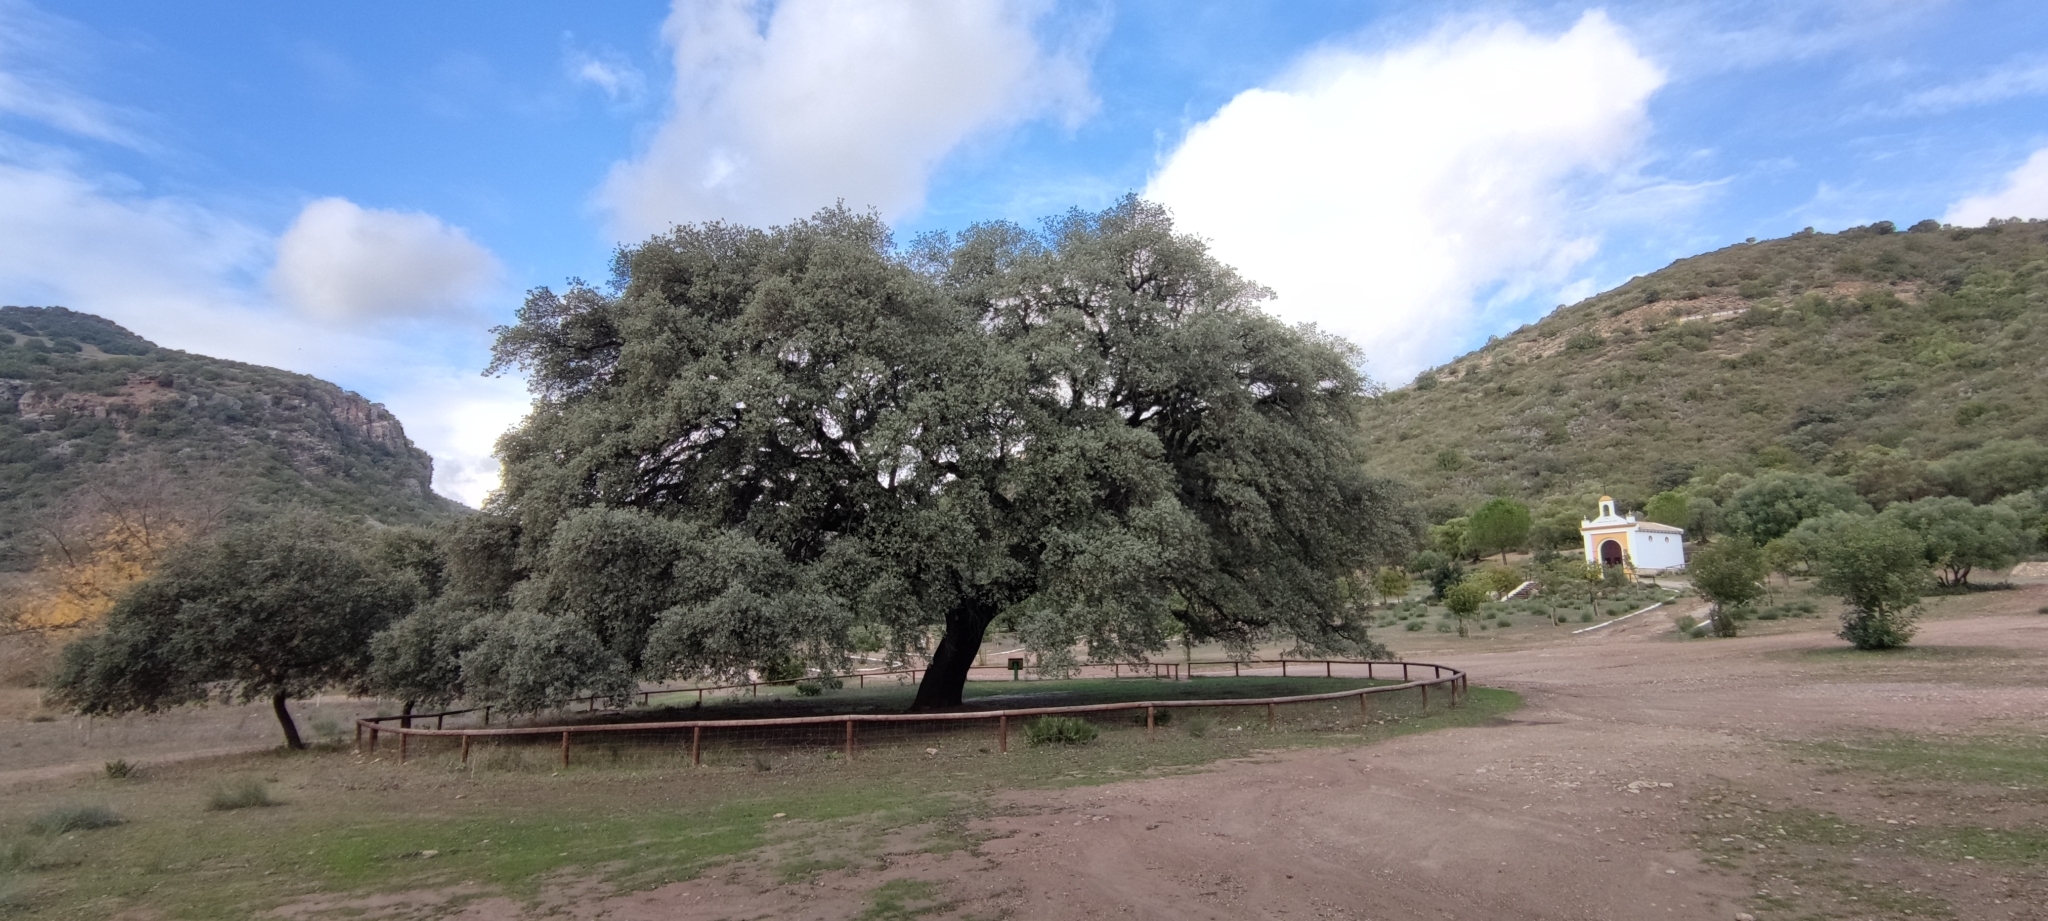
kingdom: Plantae
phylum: Tracheophyta
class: Magnoliopsida
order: Fagales
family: Fagaceae
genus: Quercus
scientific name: Quercus rotundifolia
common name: Holm oak
